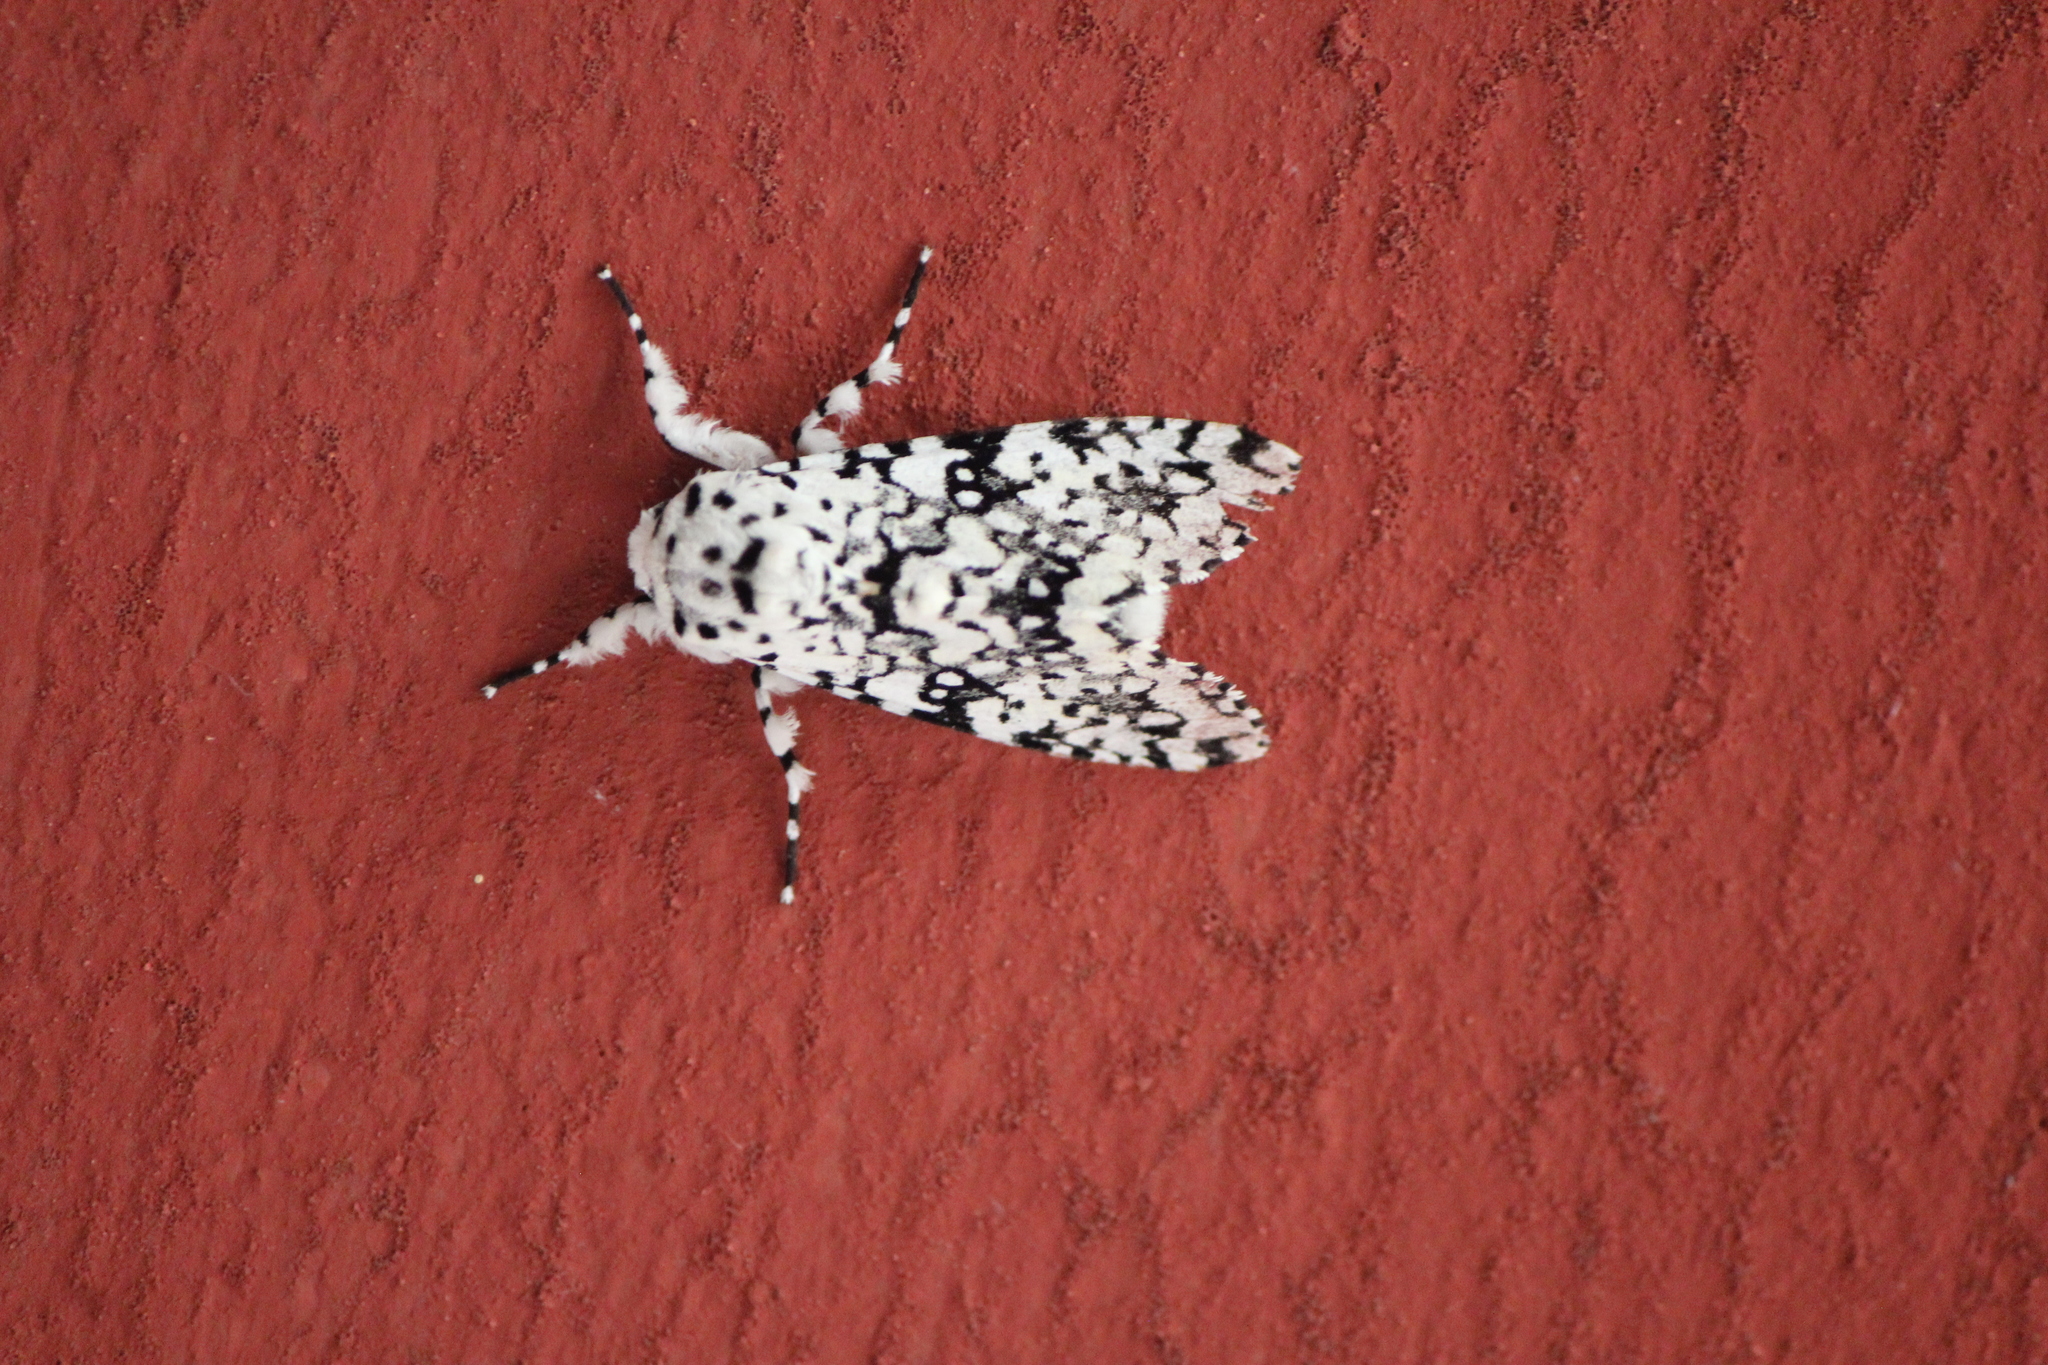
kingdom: Animalia
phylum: Arthropoda
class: Insecta
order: Lepidoptera
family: Noctuidae
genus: Lichnoptera
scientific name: Lichnoptera decora
